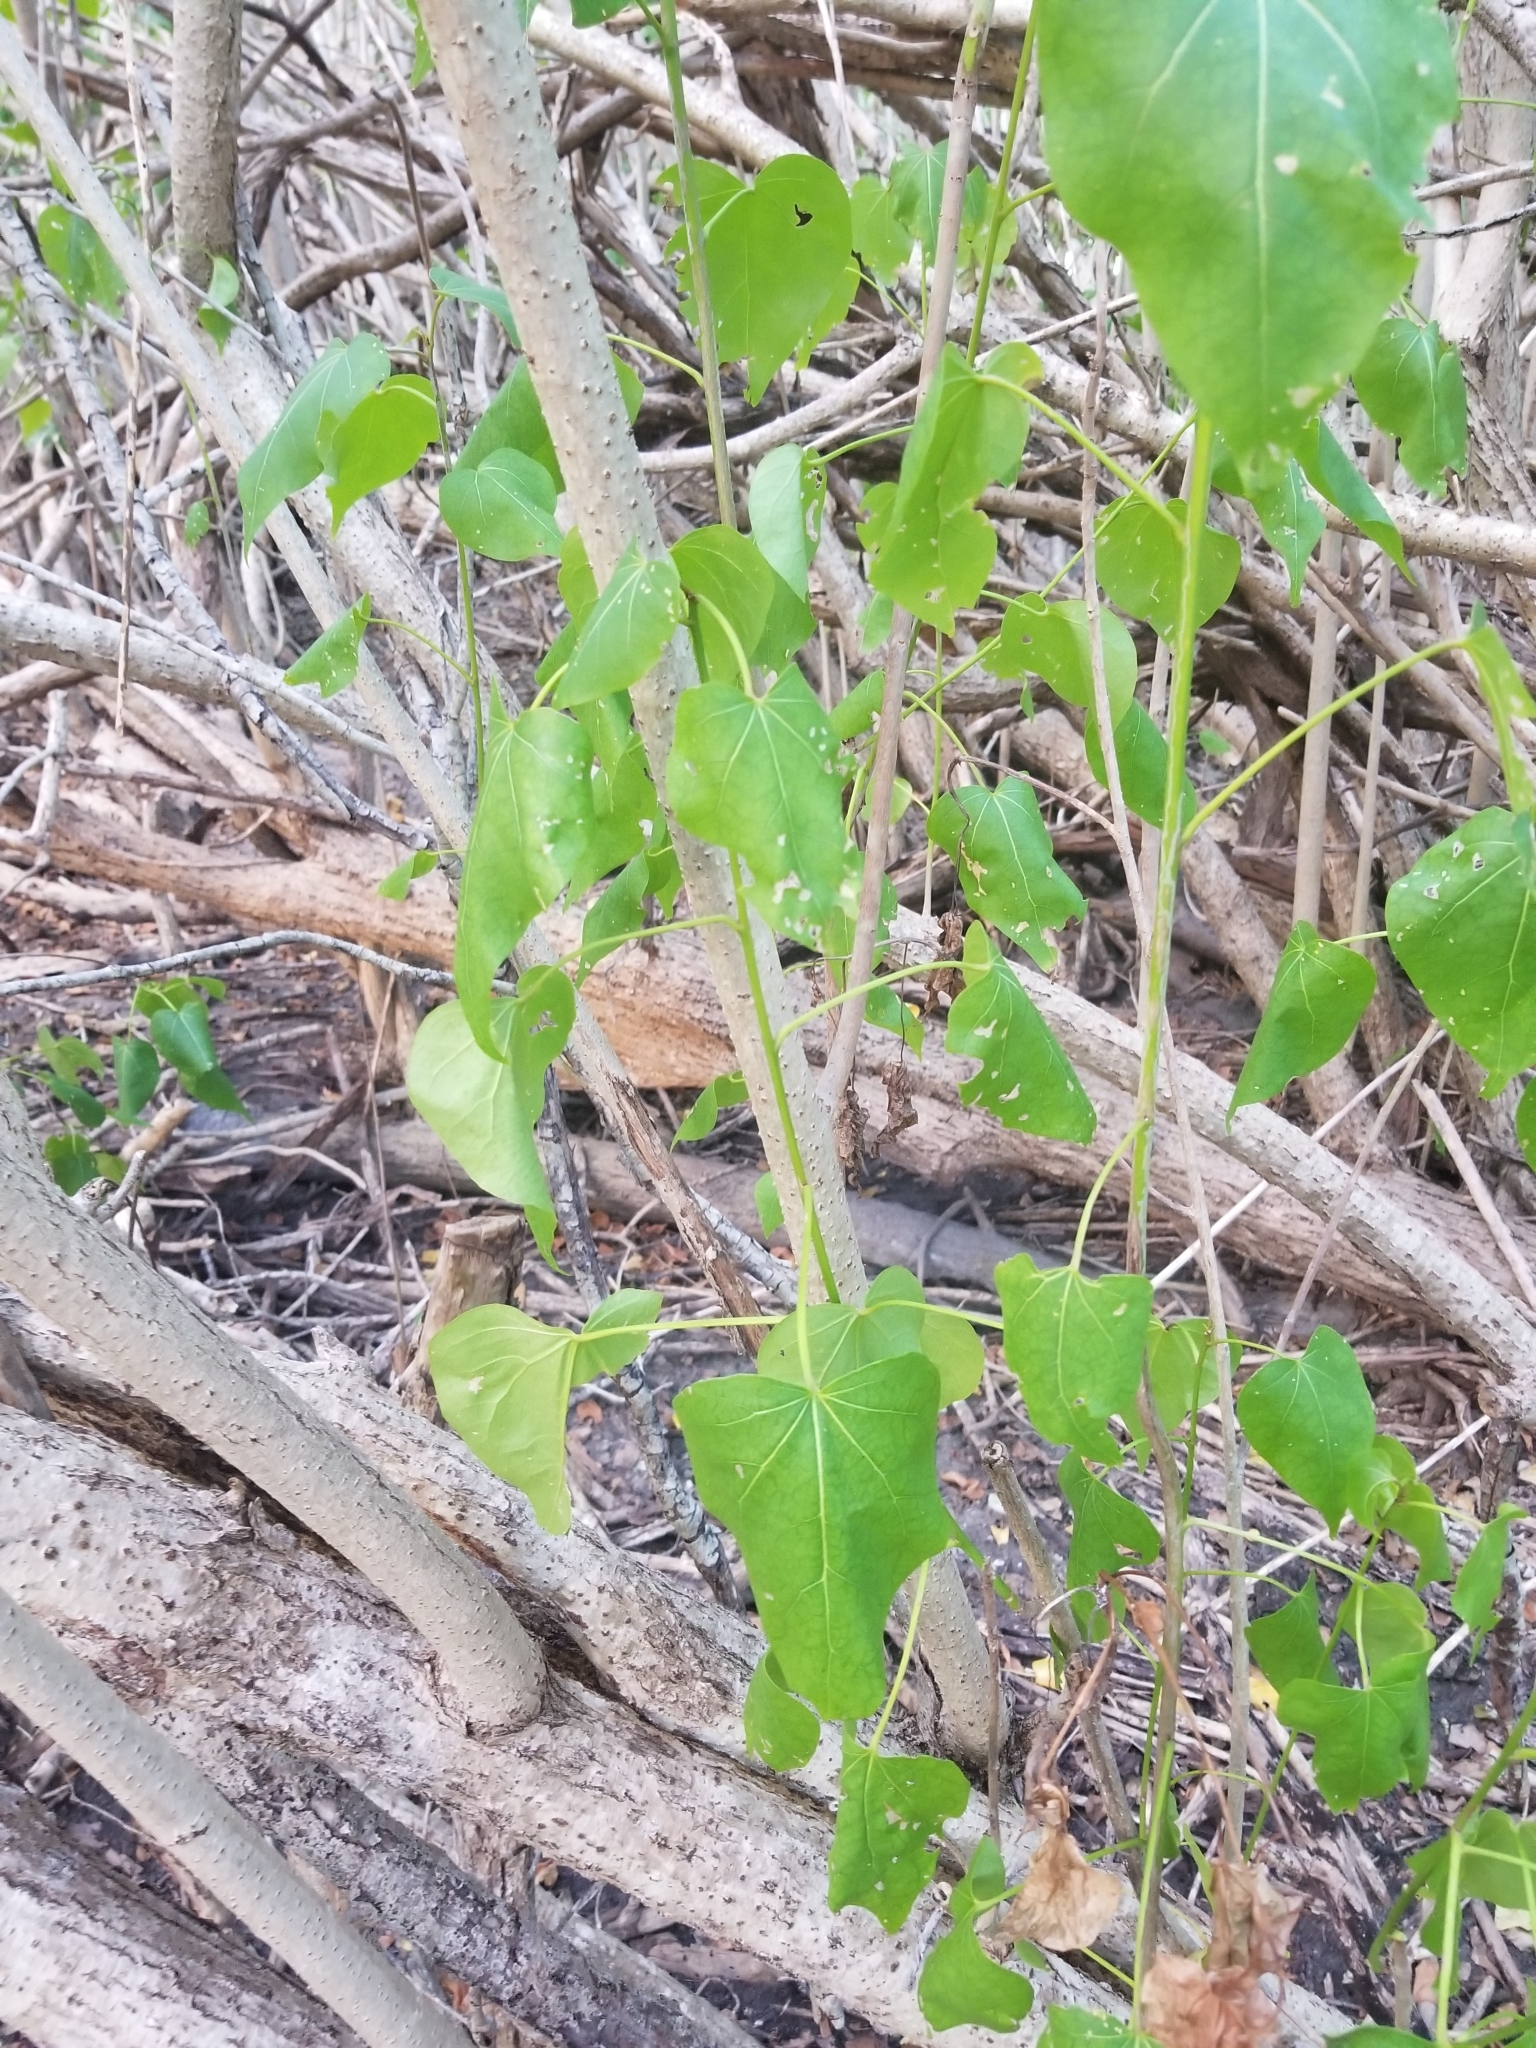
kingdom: Plantae
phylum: Tracheophyta
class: Magnoliopsida
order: Malvales
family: Malvaceae
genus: Thespesia
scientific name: Thespesia populnea
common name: Seaside mahoe
